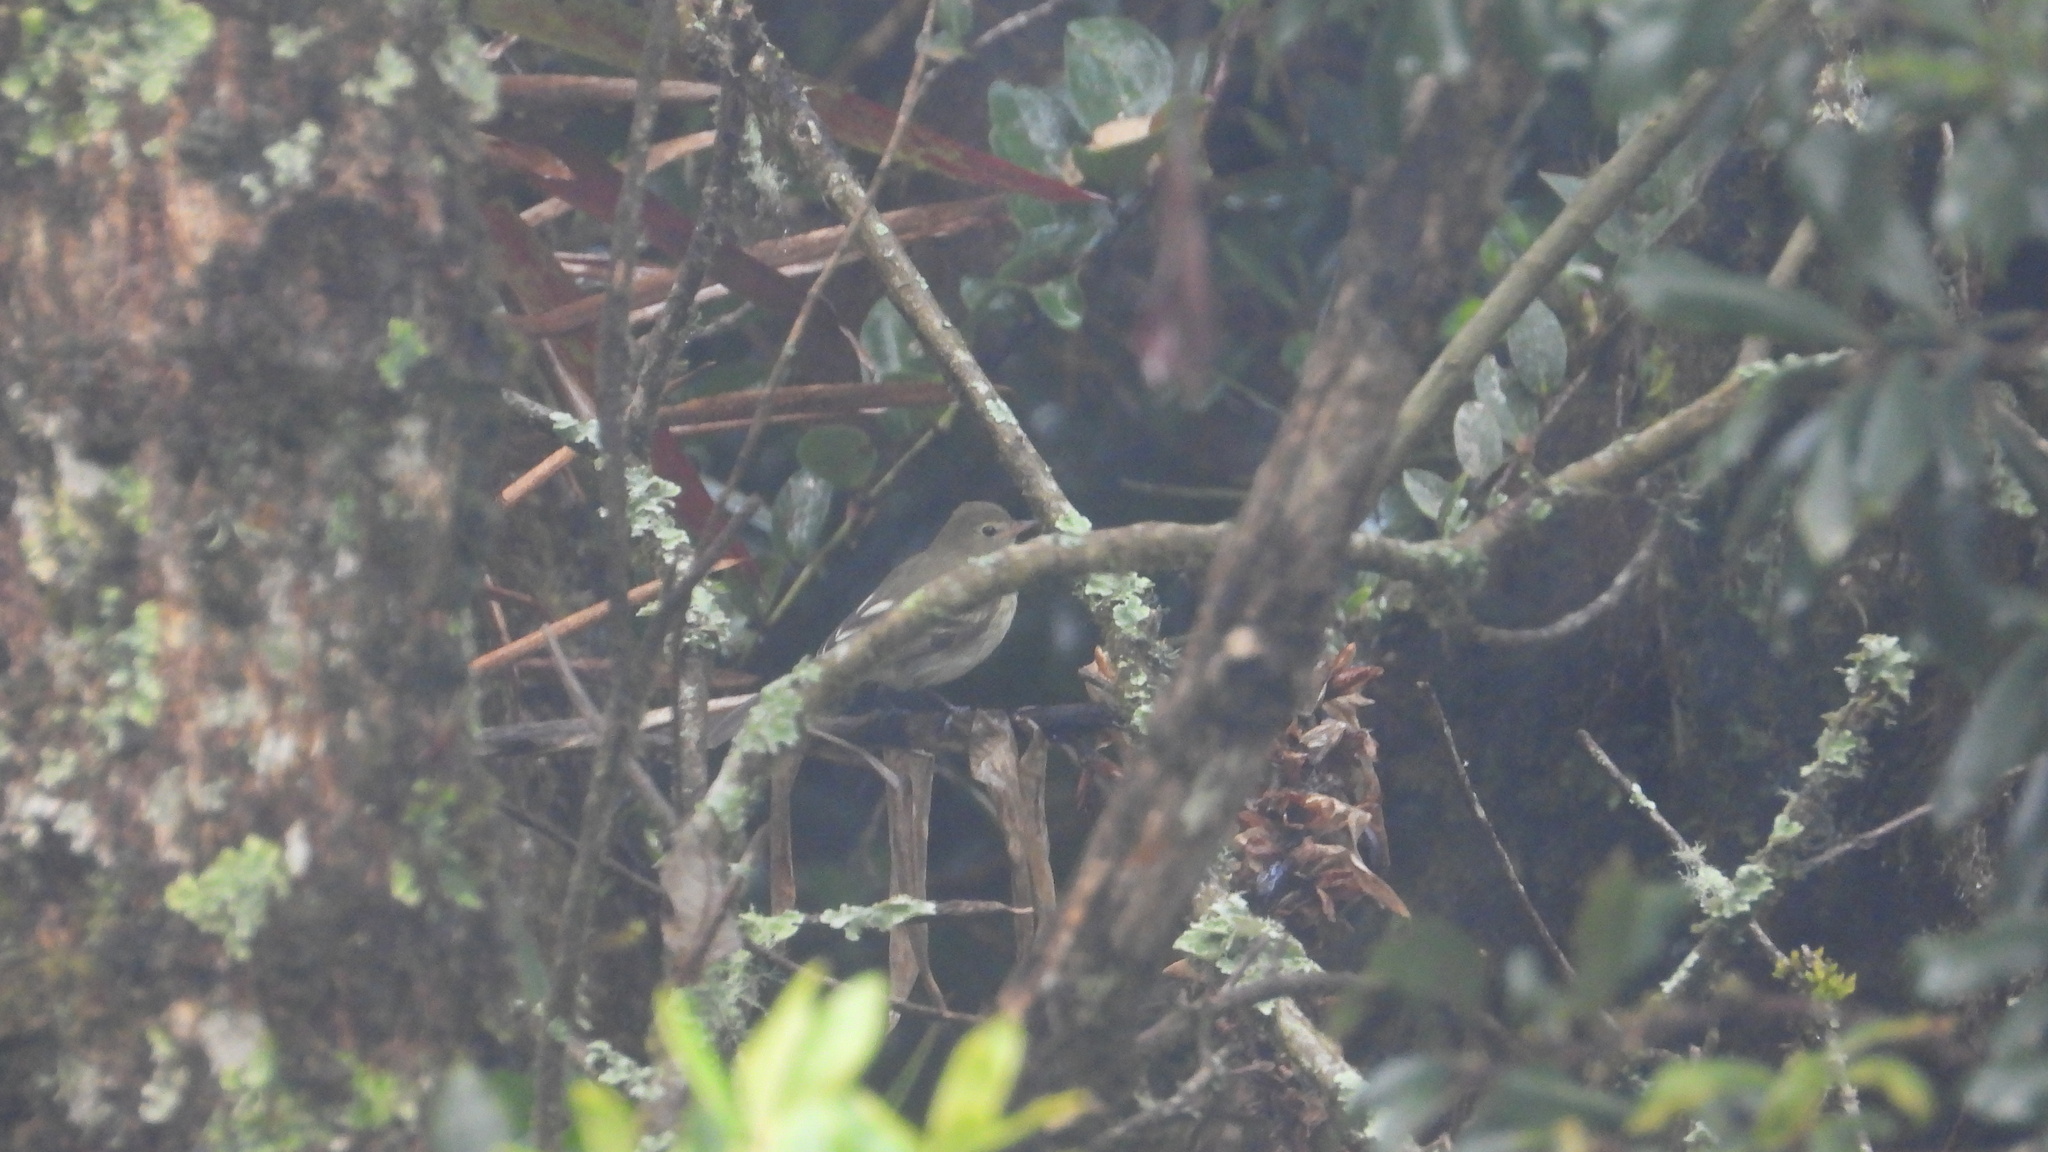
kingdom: Animalia
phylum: Chordata
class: Aves
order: Passeriformes
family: Tyrannidae
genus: Elaenia
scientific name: Elaenia frantzii
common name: Mountain elaenia
